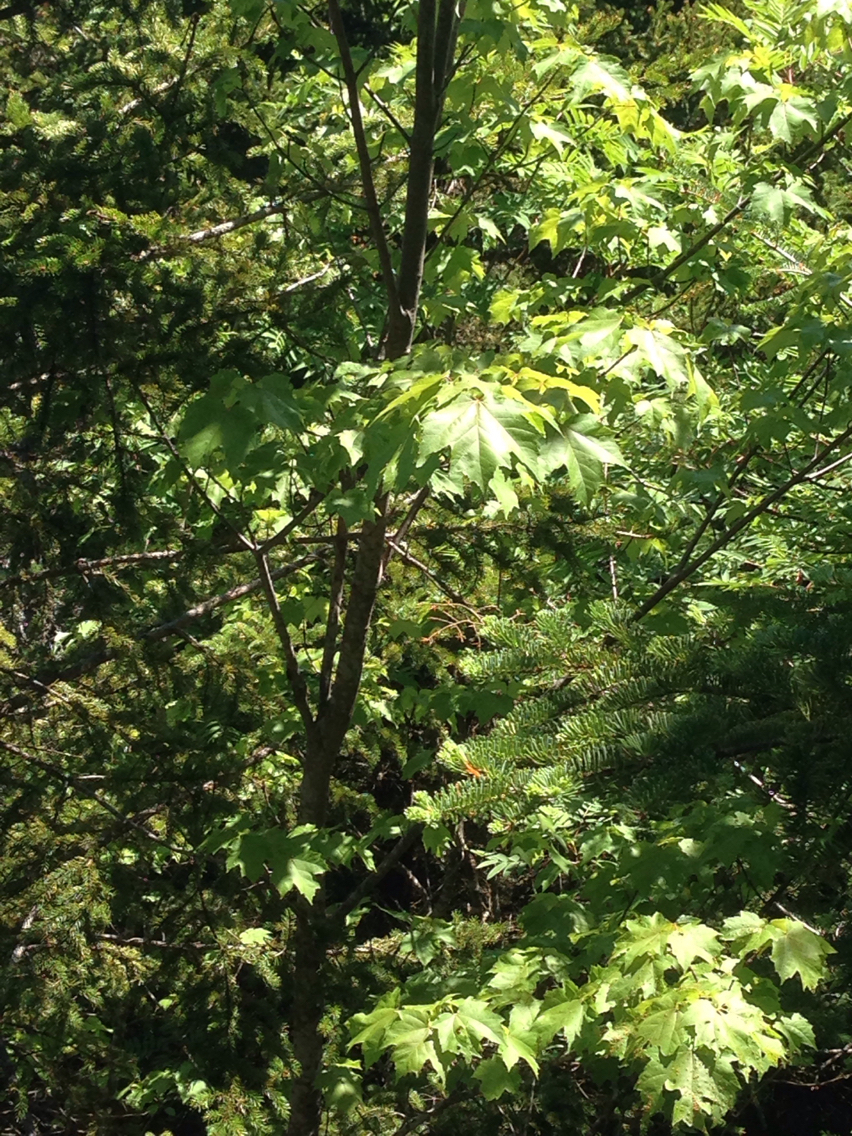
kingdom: Plantae
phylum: Tracheophyta
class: Magnoliopsida
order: Sapindales
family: Sapindaceae
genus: Acer
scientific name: Acer rubrum
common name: Red maple
